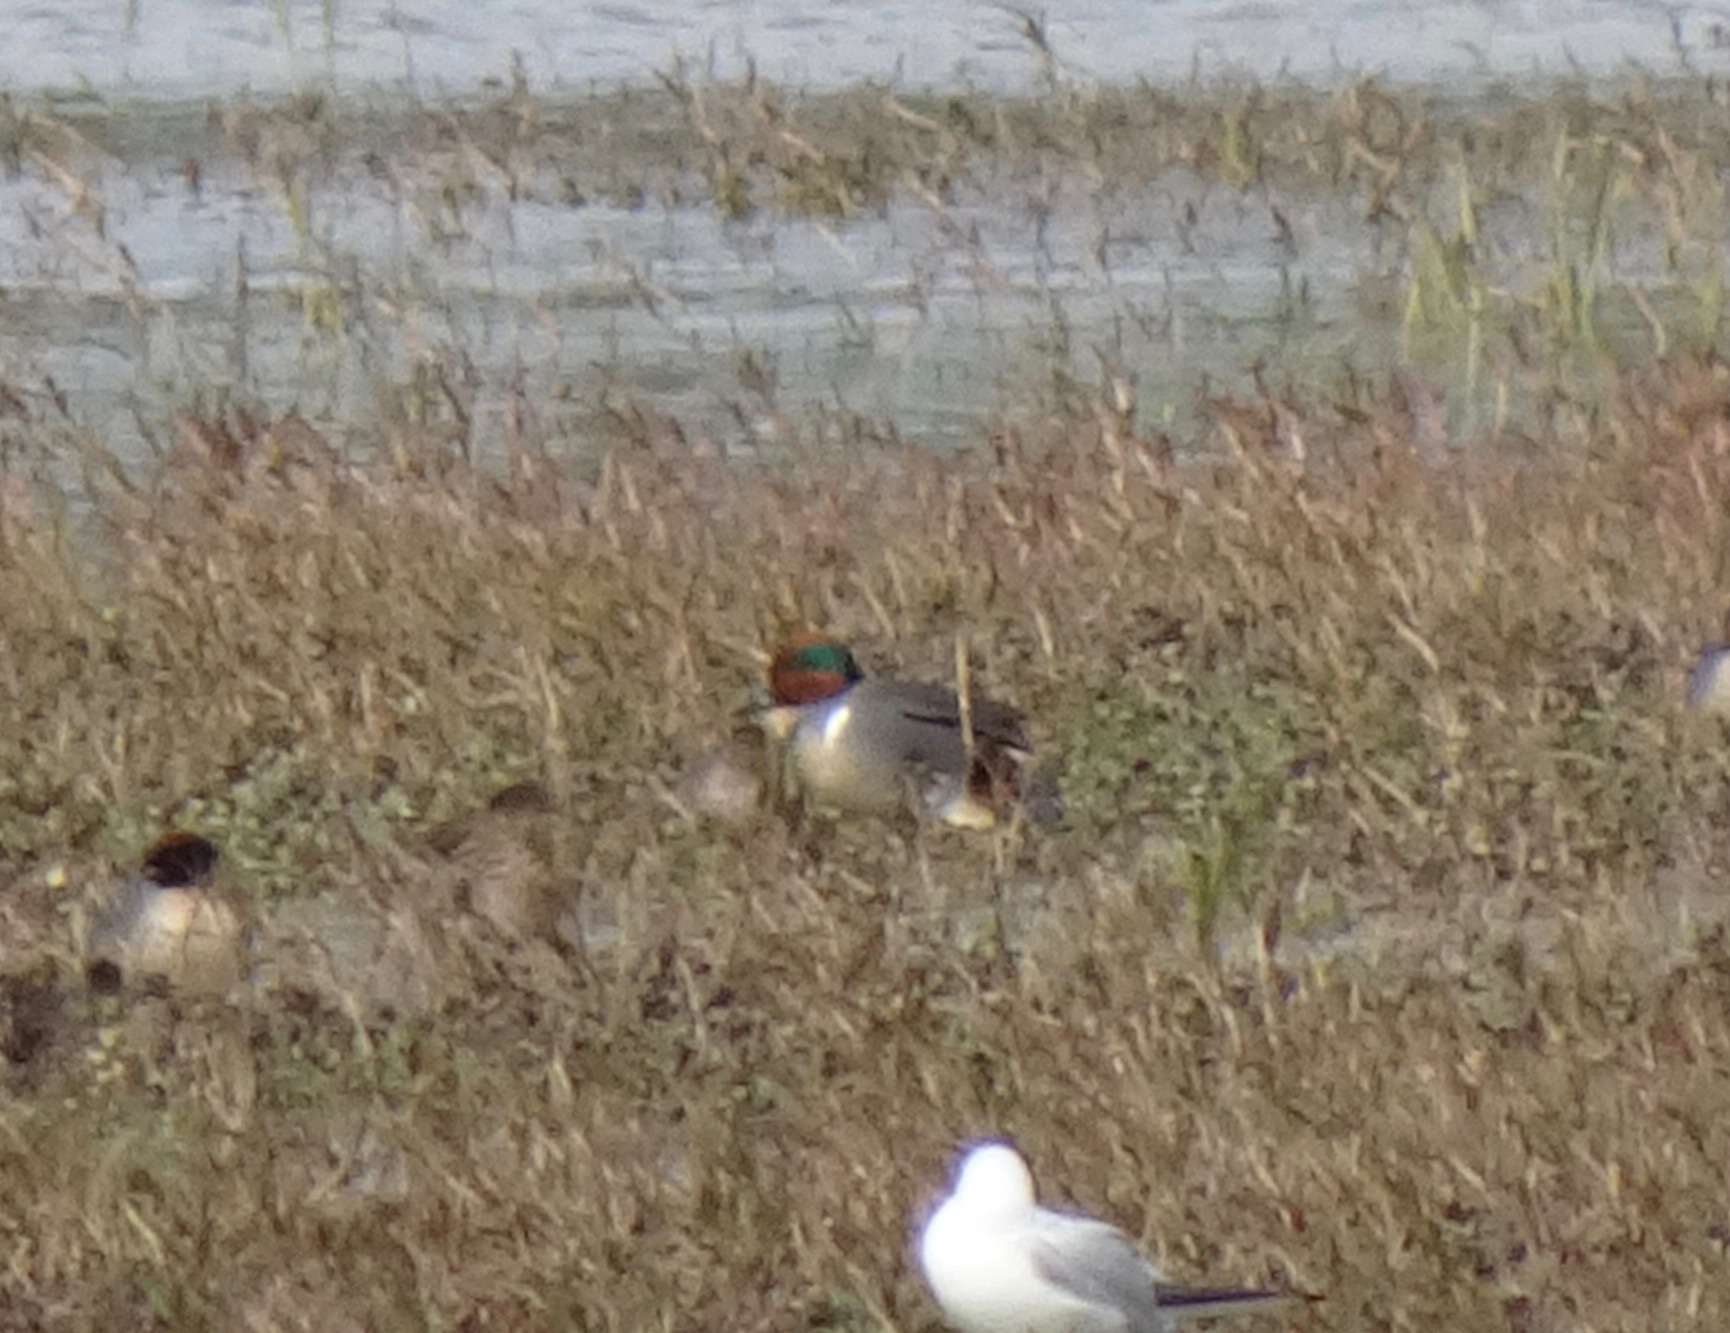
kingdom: Animalia
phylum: Chordata
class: Aves
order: Anseriformes
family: Anatidae
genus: Anas
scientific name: Anas carolinensis
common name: Green-winged teal
